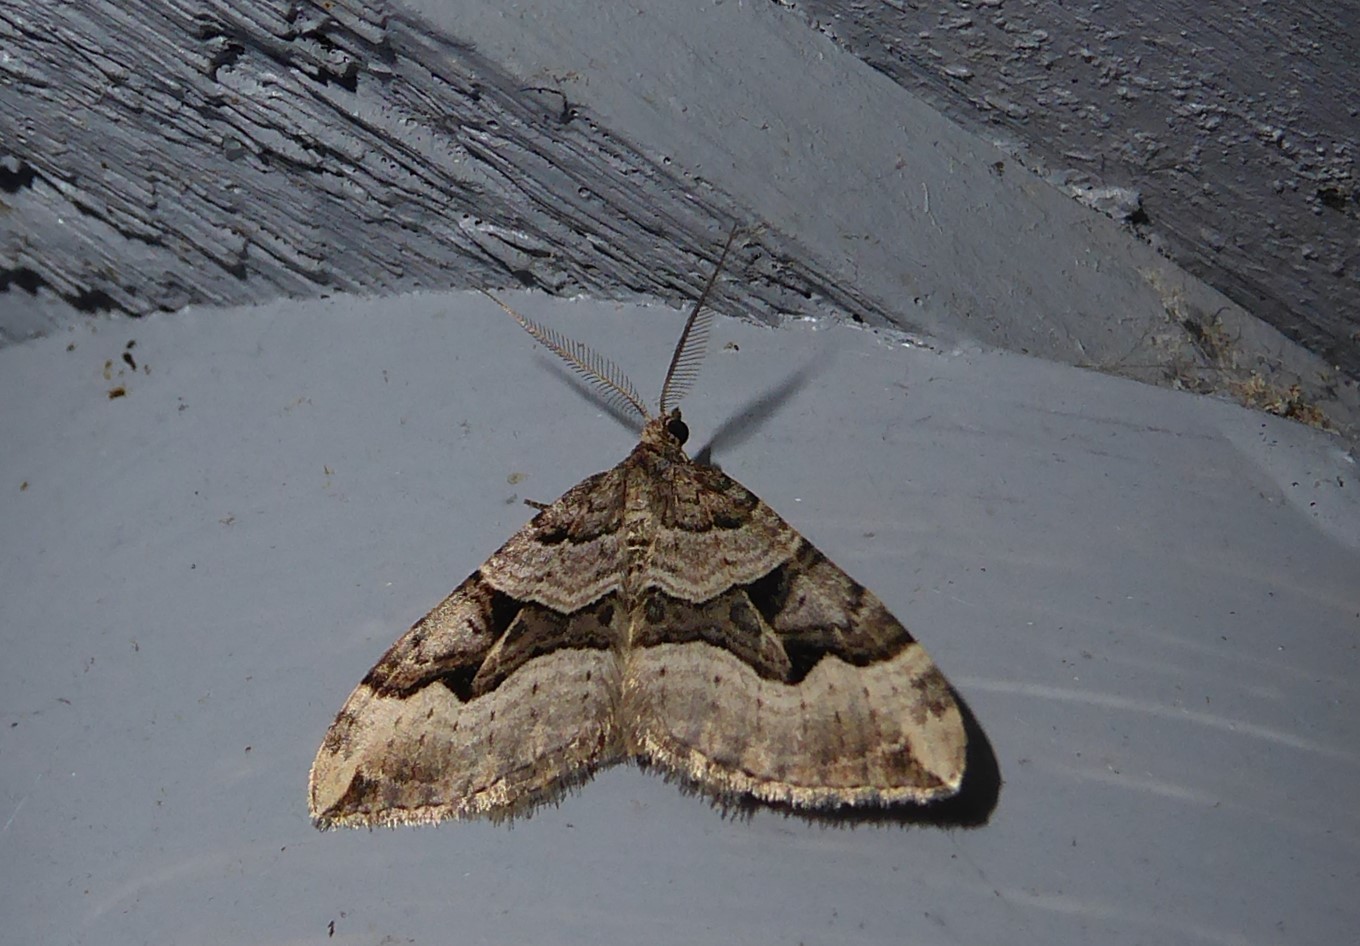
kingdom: Animalia
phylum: Arthropoda
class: Insecta
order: Lepidoptera
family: Geometridae
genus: Xanthorhoe
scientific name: Xanthorhoe semifissata
